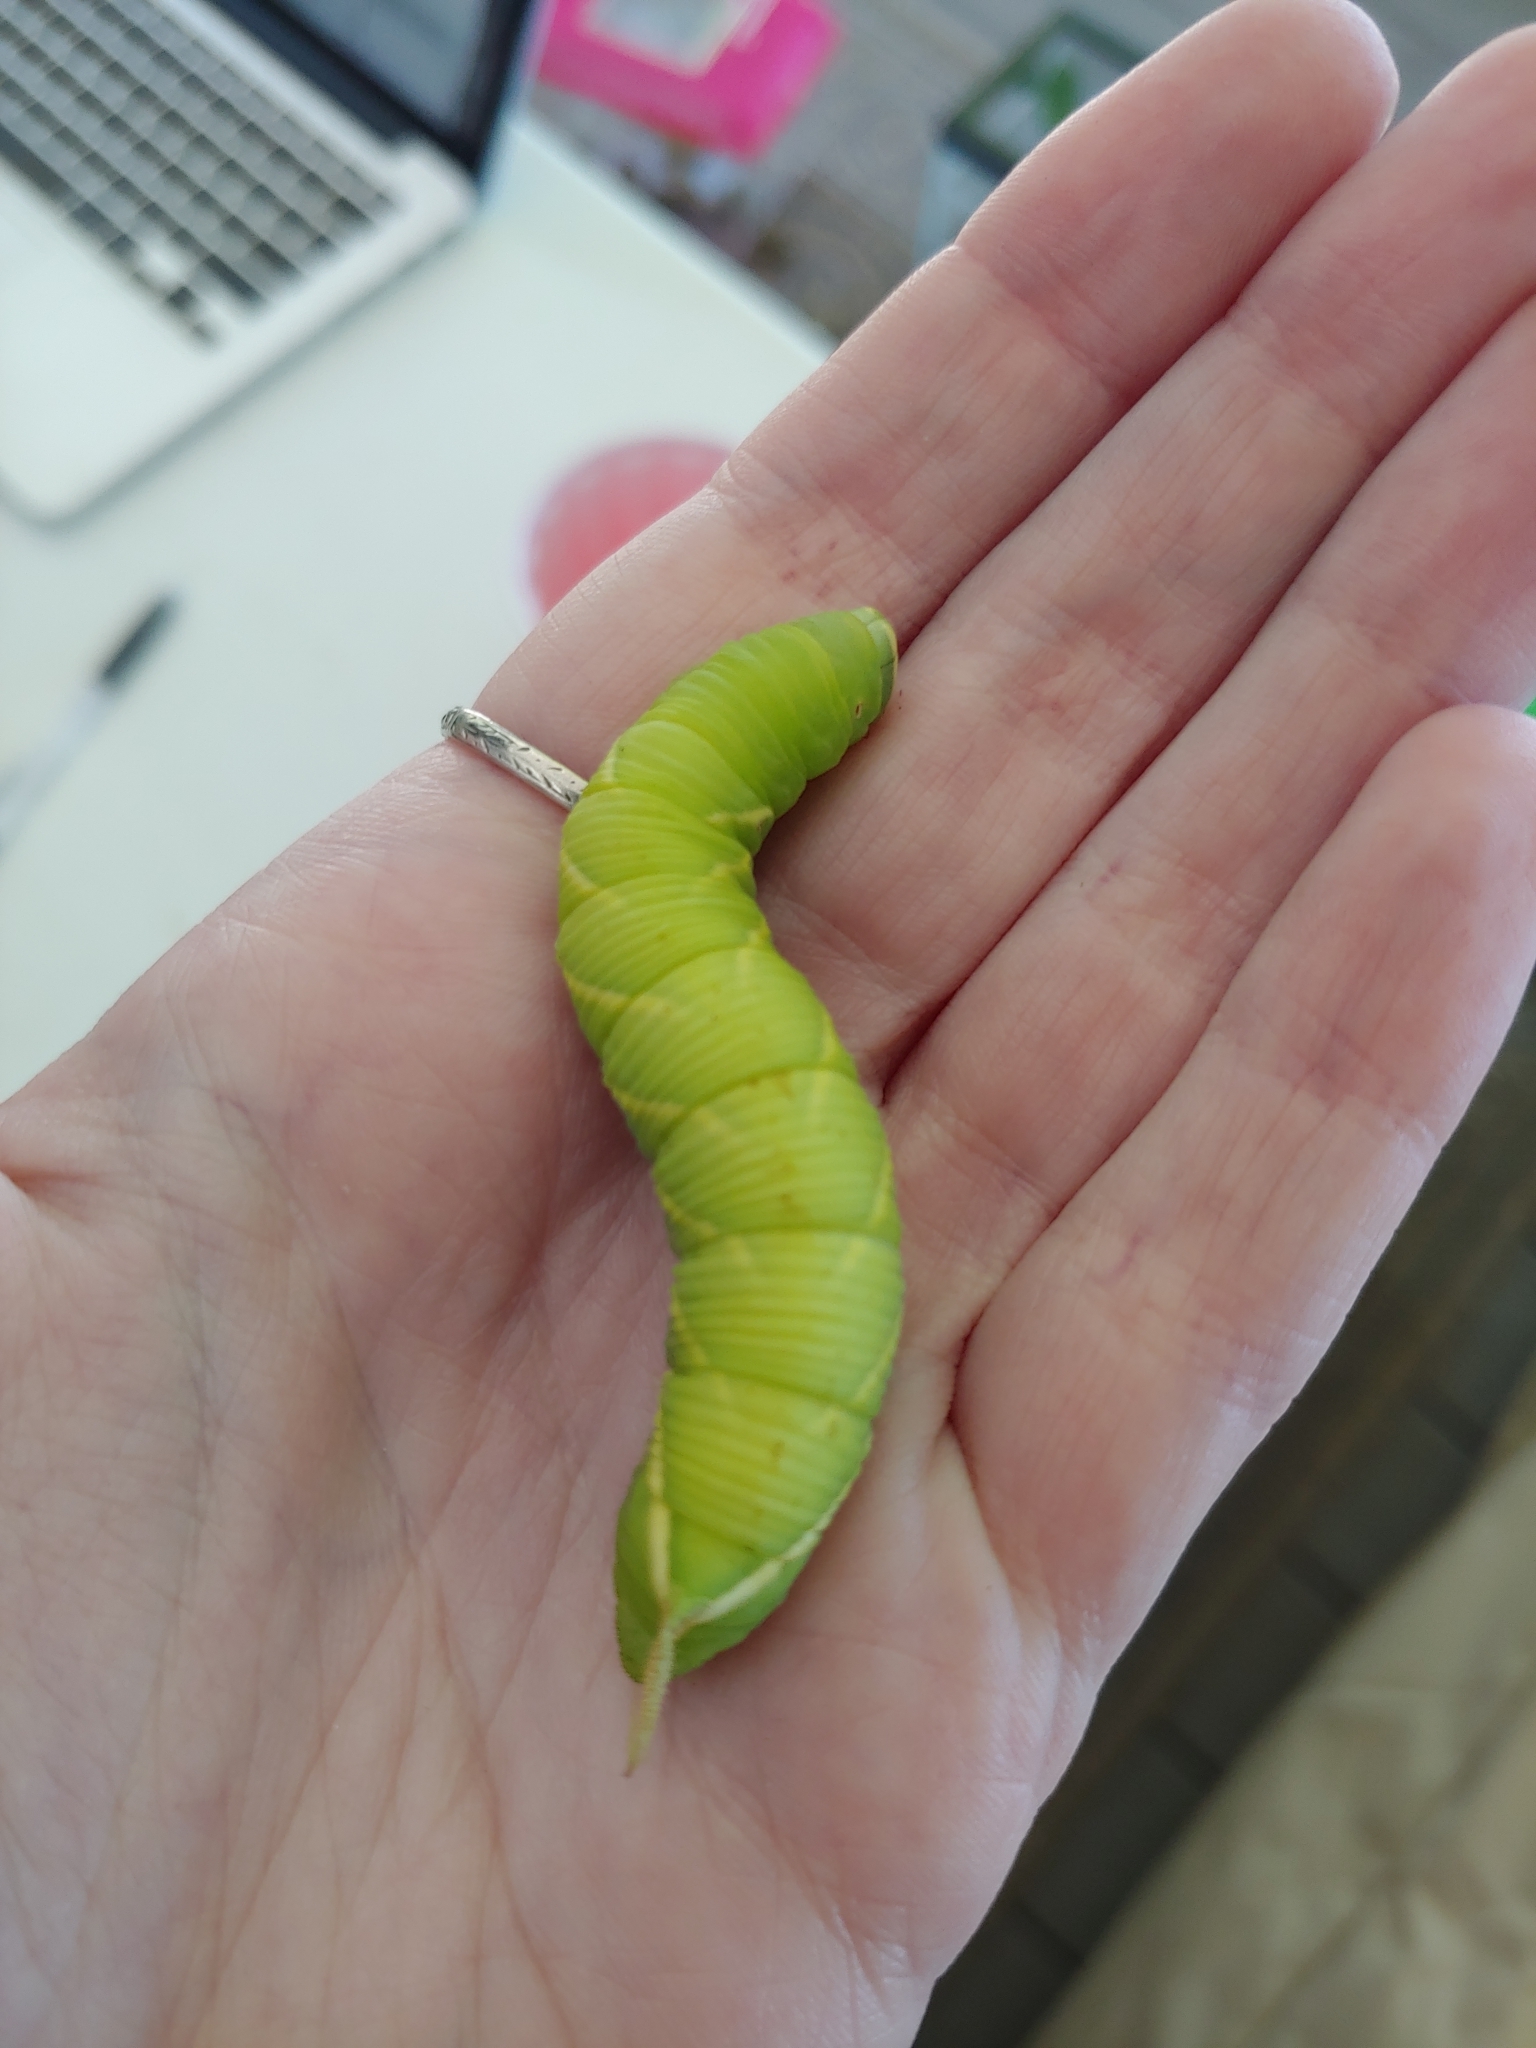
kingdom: Animalia
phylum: Arthropoda
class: Insecta
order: Lepidoptera
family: Sphingidae
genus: Ceratomia
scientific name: Ceratomia undulosa
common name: Waved sphinx
